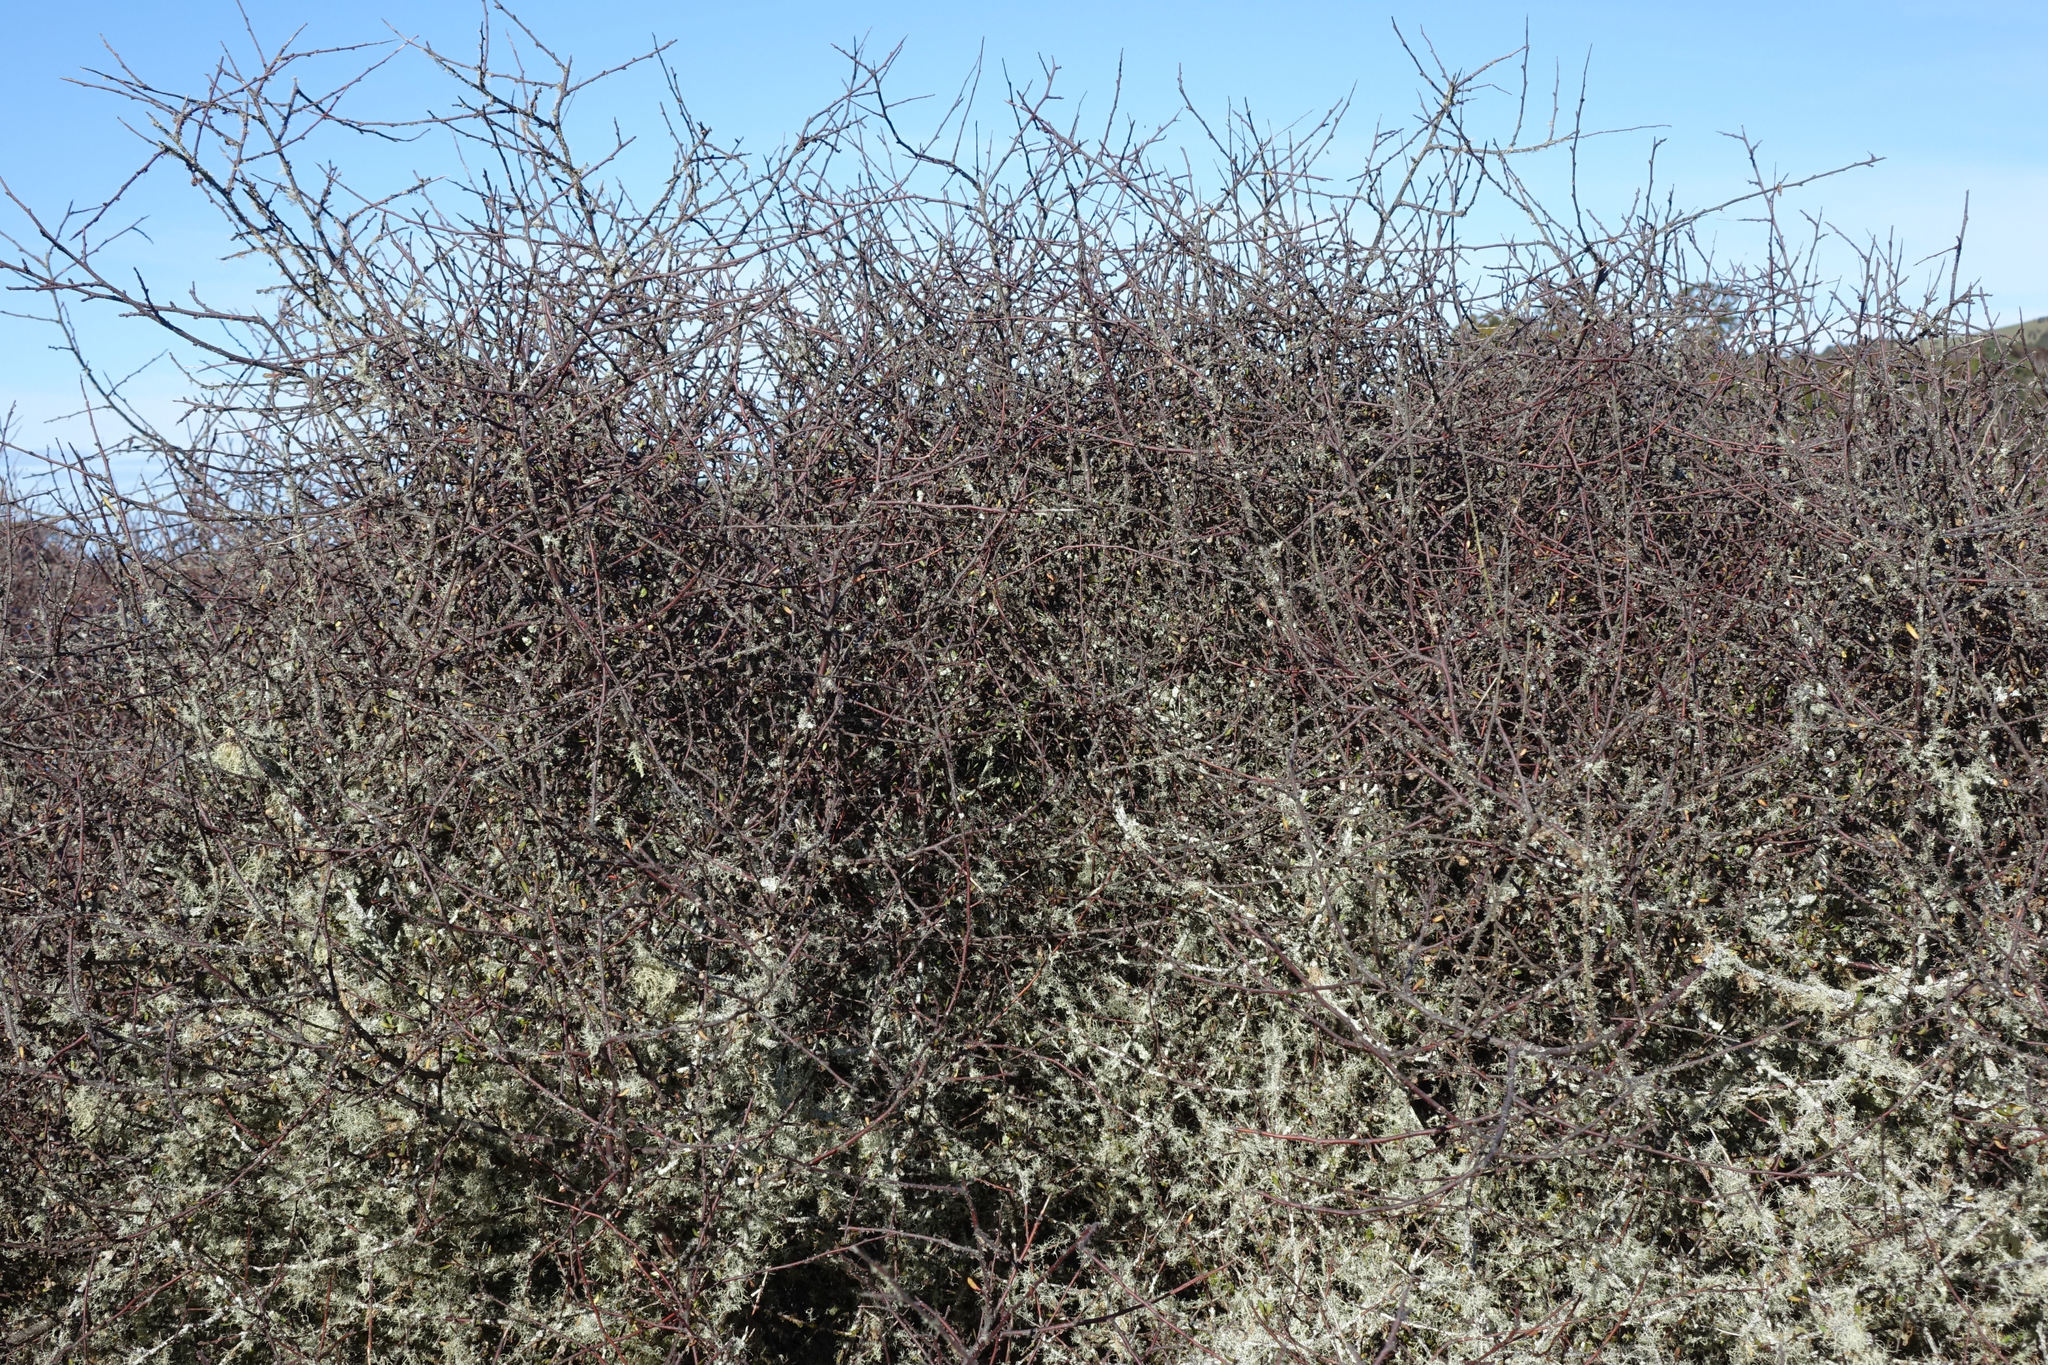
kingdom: Plantae
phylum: Tracheophyta
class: Magnoliopsida
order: Malvales
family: Malvaceae
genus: Plagianthus
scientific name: Plagianthus divaricatus
